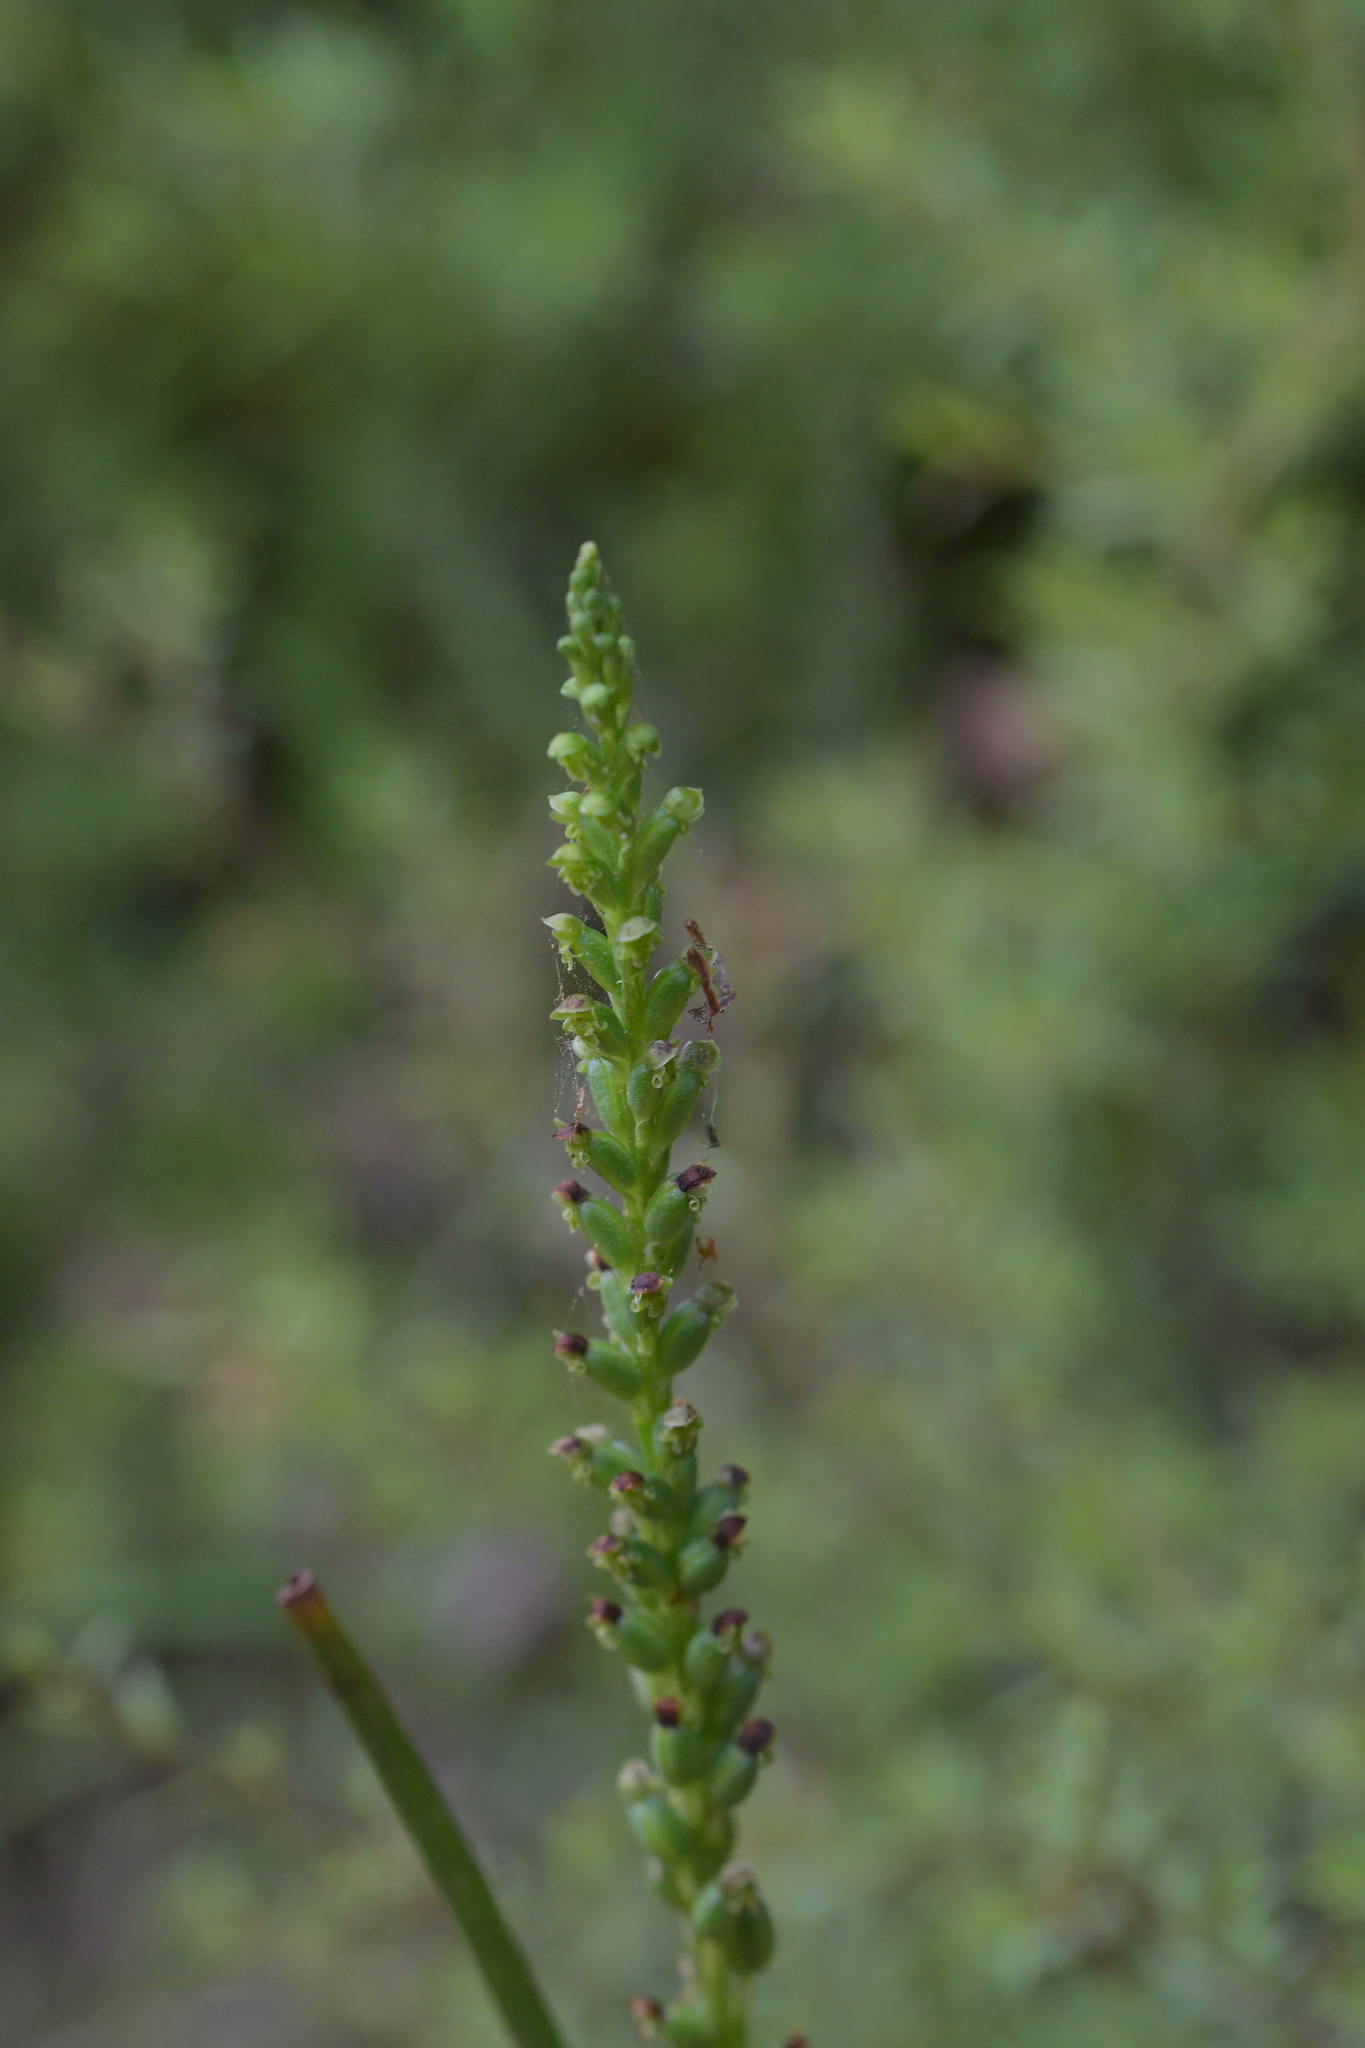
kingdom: Plantae
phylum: Tracheophyta
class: Liliopsida
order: Asparagales
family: Orchidaceae
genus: Microtis
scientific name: Microtis unifolia
